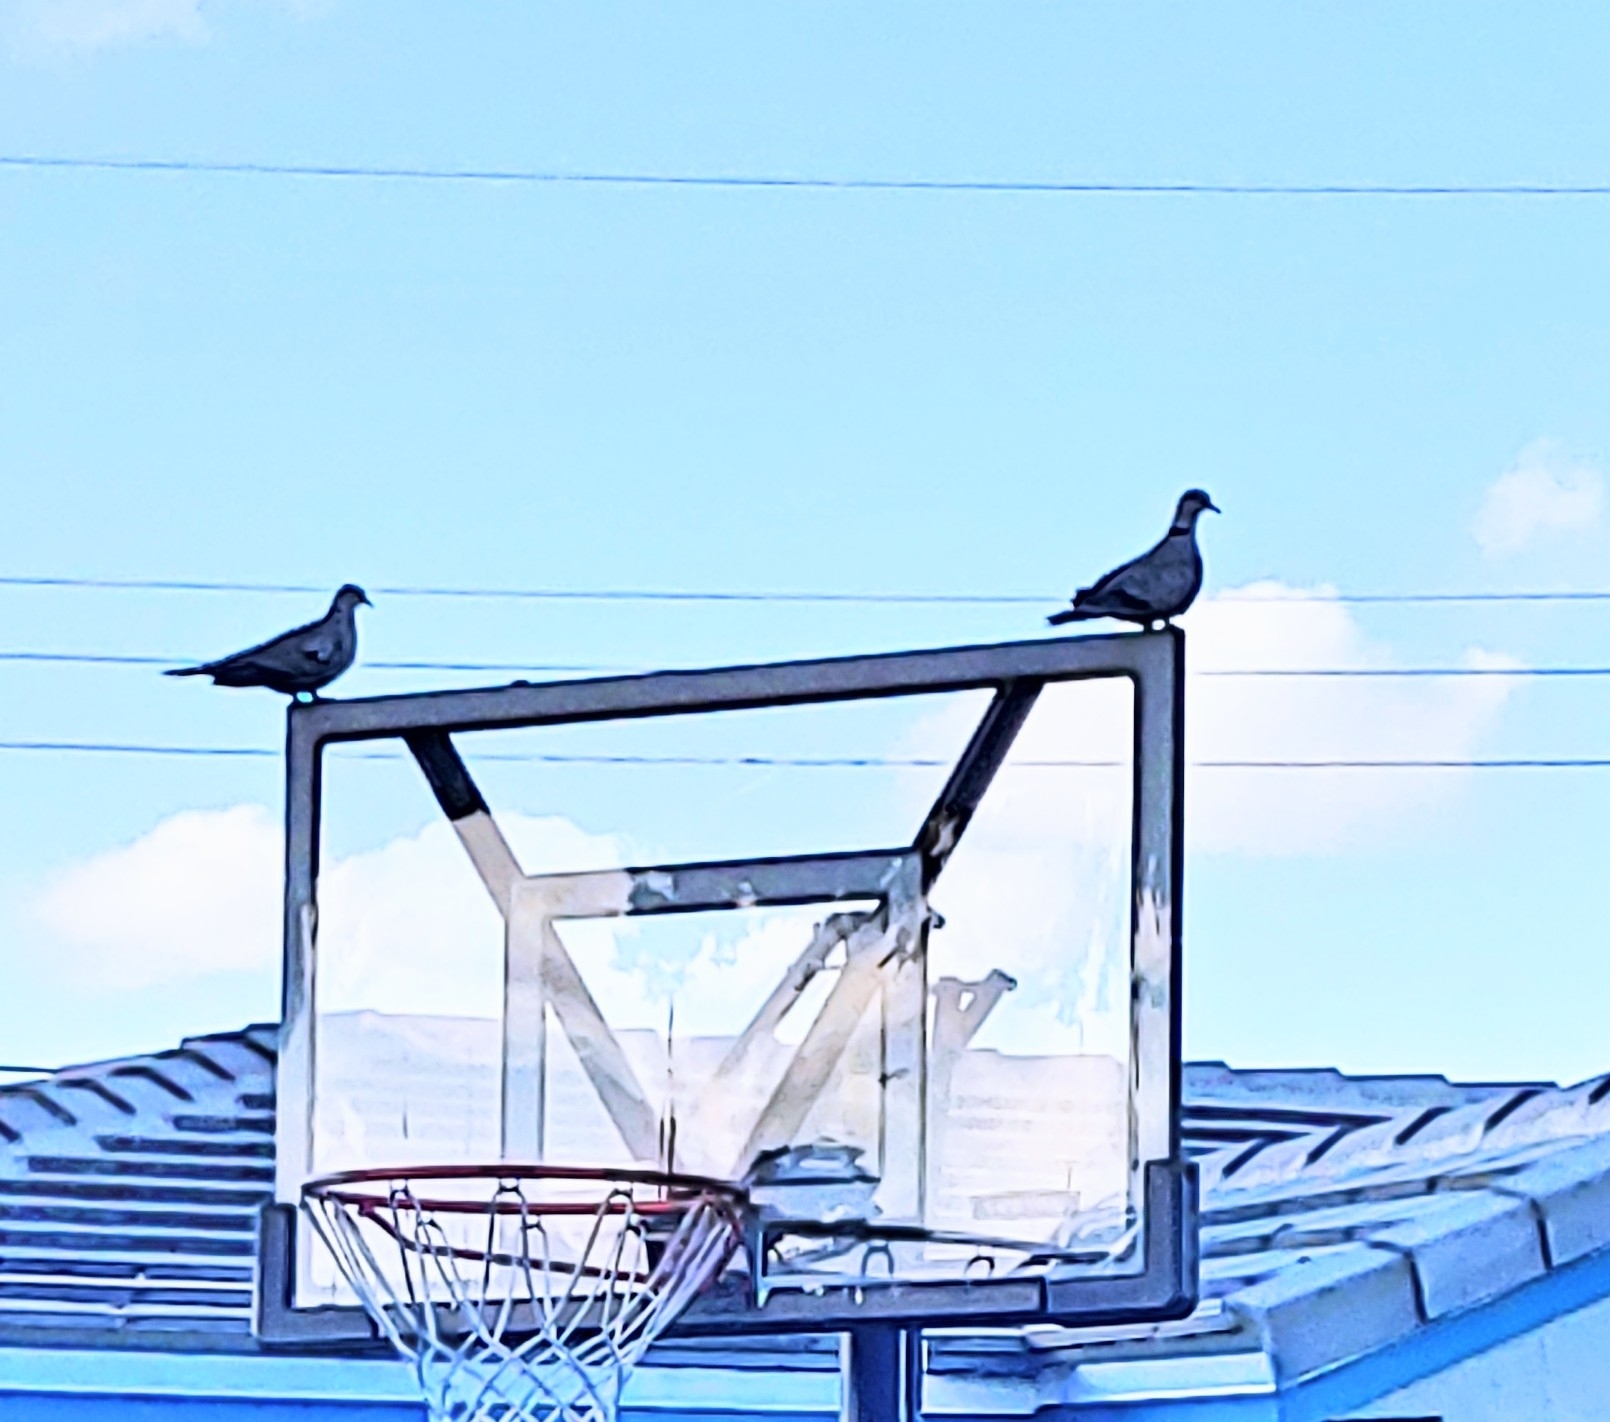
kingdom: Animalia
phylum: Chordata
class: Aves
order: Columbiformes
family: Columbidae
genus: Streptopelia
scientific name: Streptopelia decaocto
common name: Eurasian collared dove
